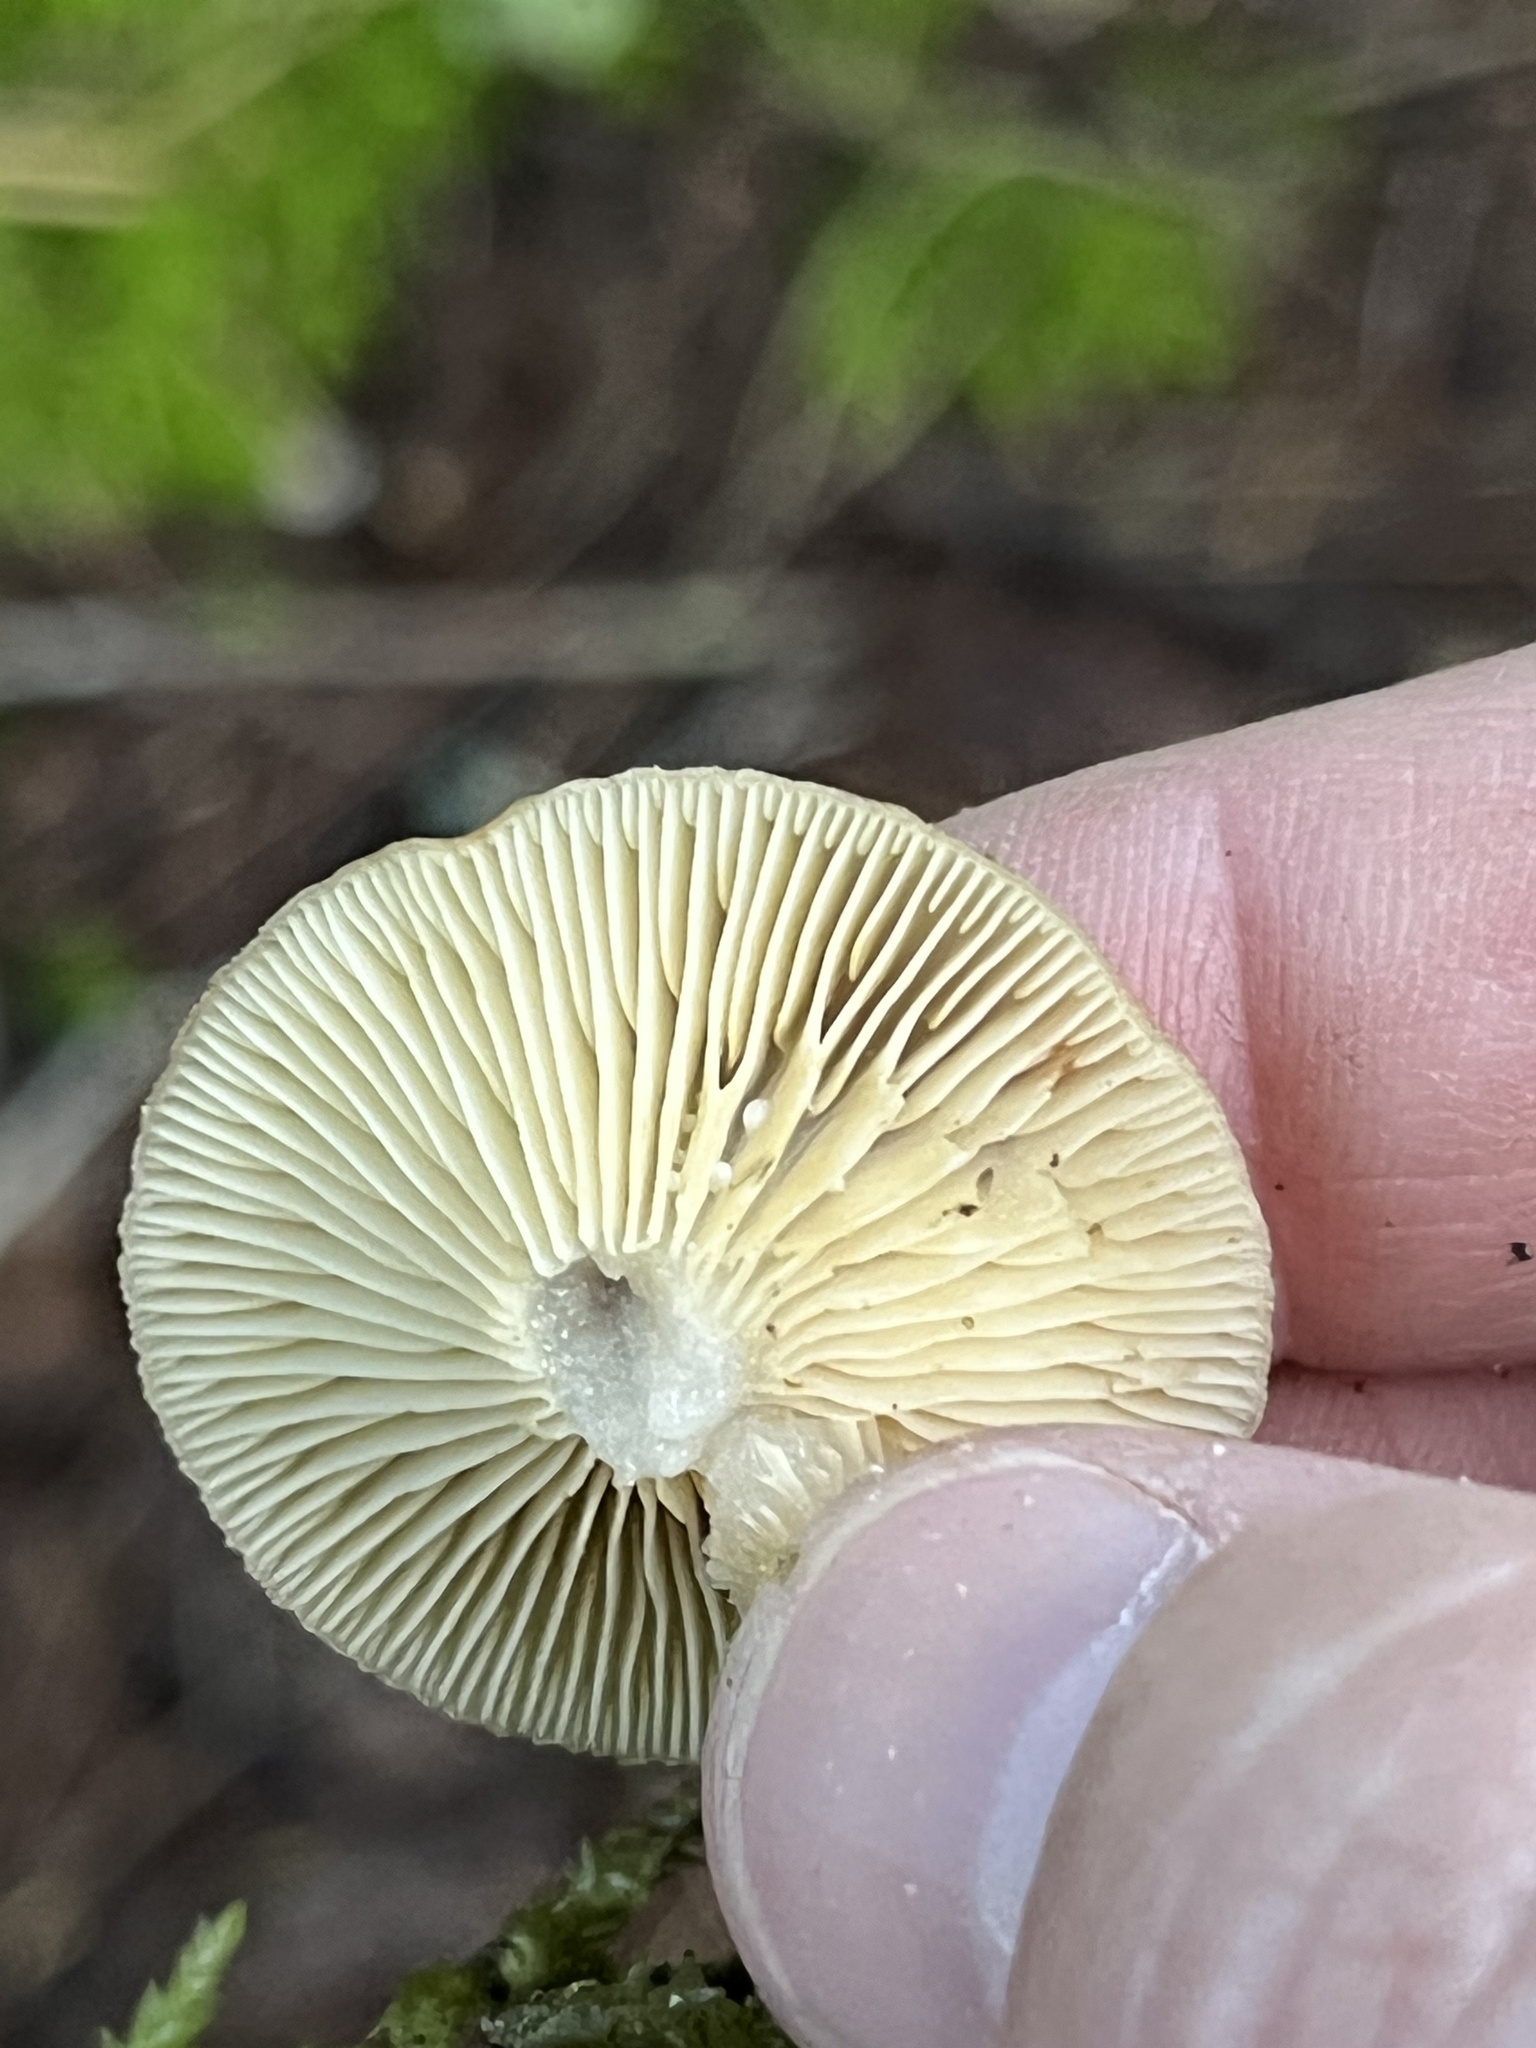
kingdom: Fungi
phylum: Basidiomycota
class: Agaricomycetes
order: Russulales
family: Russulaceae
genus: Lactarius
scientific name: Lactarius griseus
